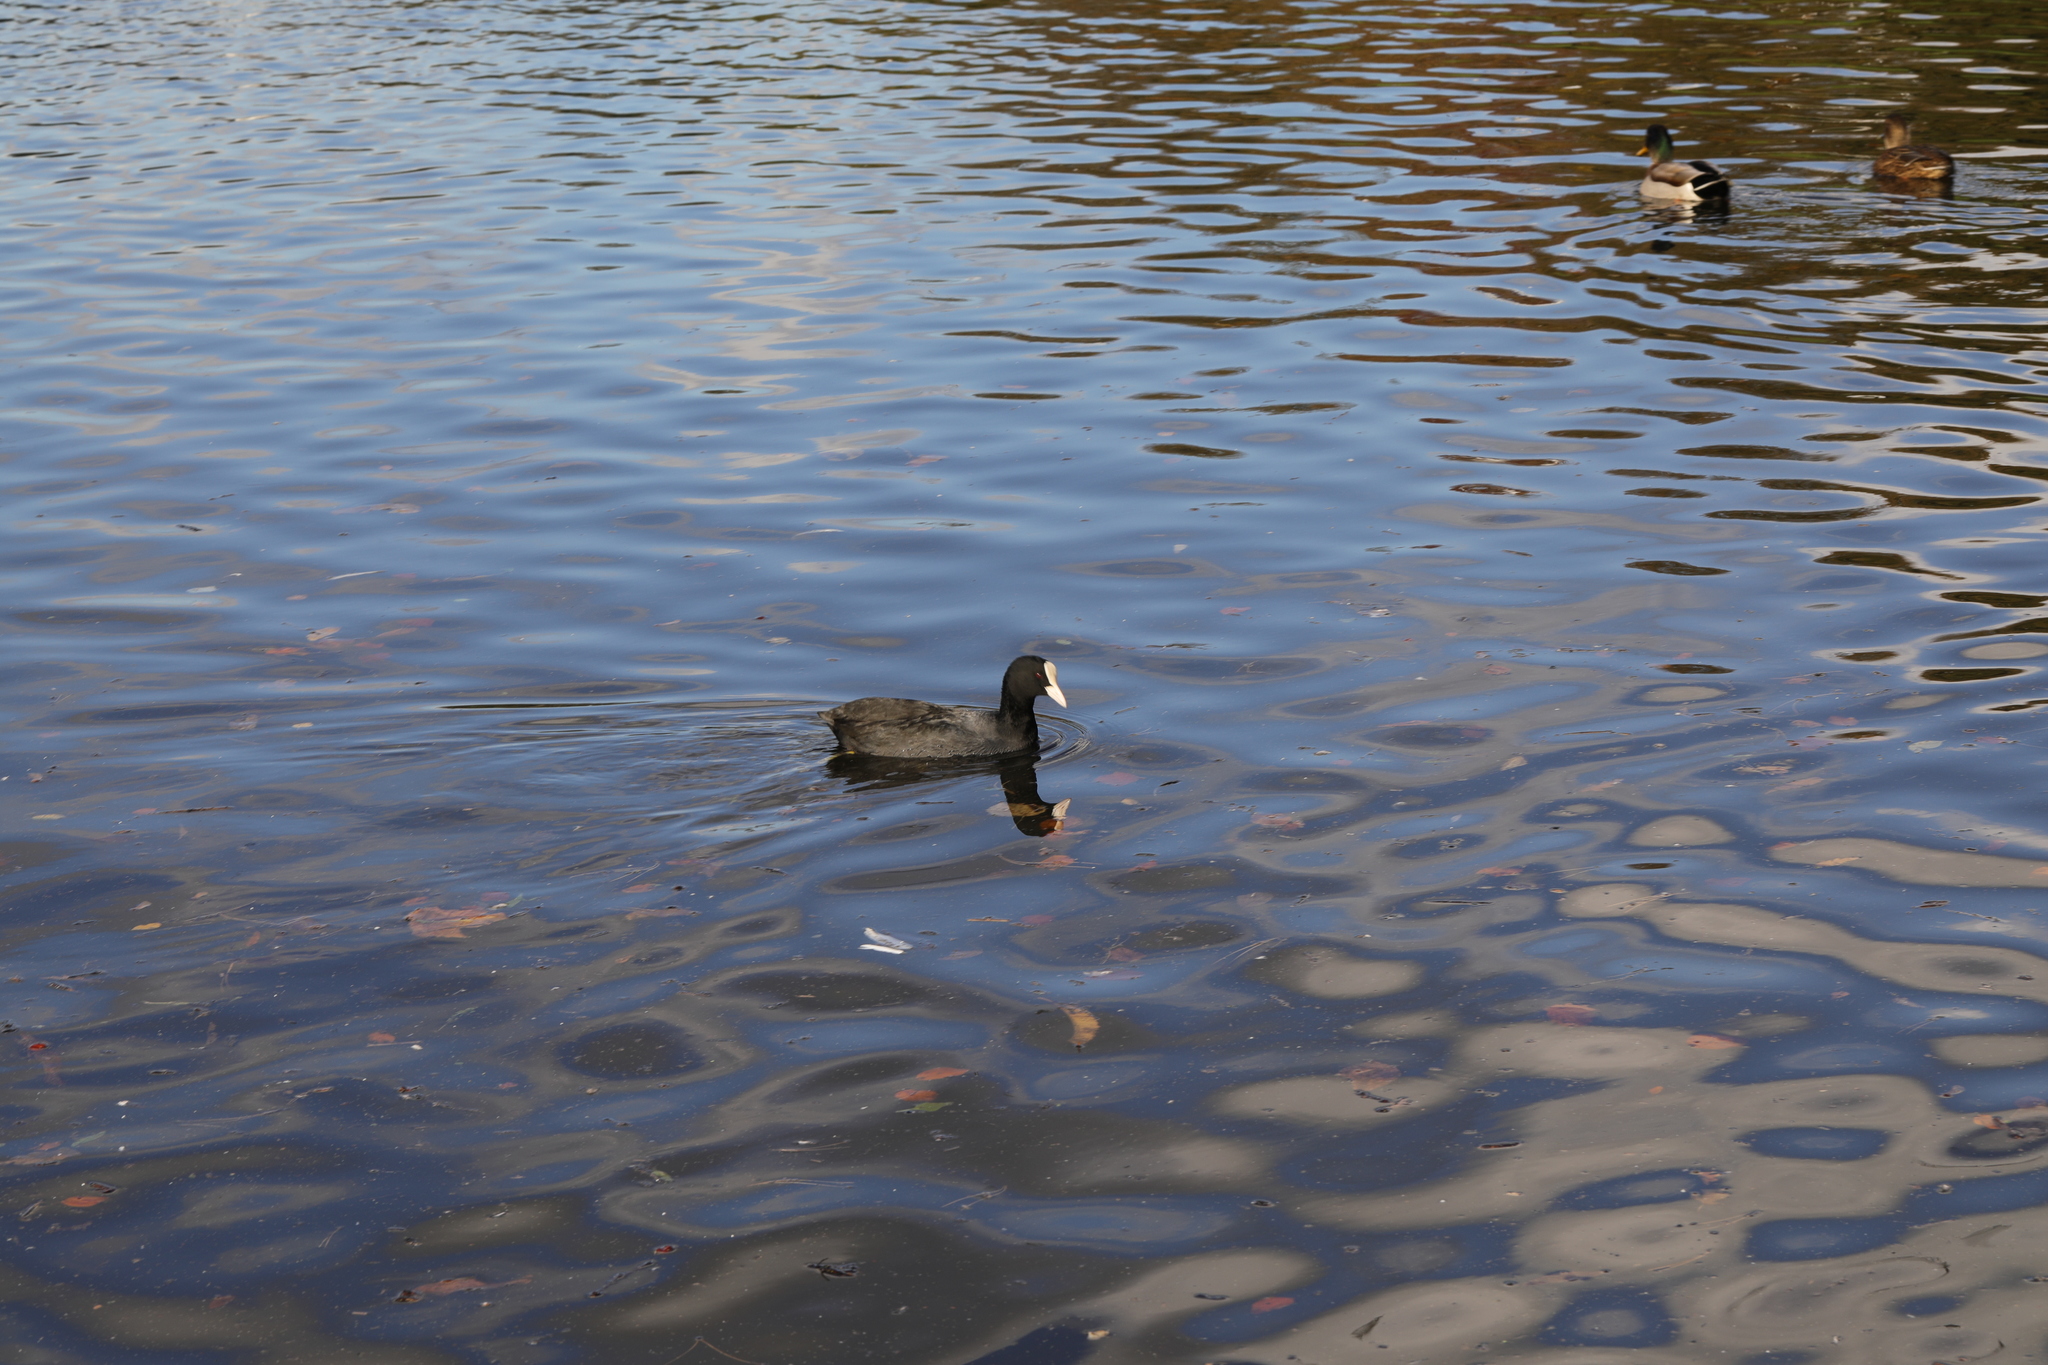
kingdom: Animalia
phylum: Chordata
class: Aves
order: Gruiformes
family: Rallidae
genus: Fulica
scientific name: Fulica atra
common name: Eurasian coot
